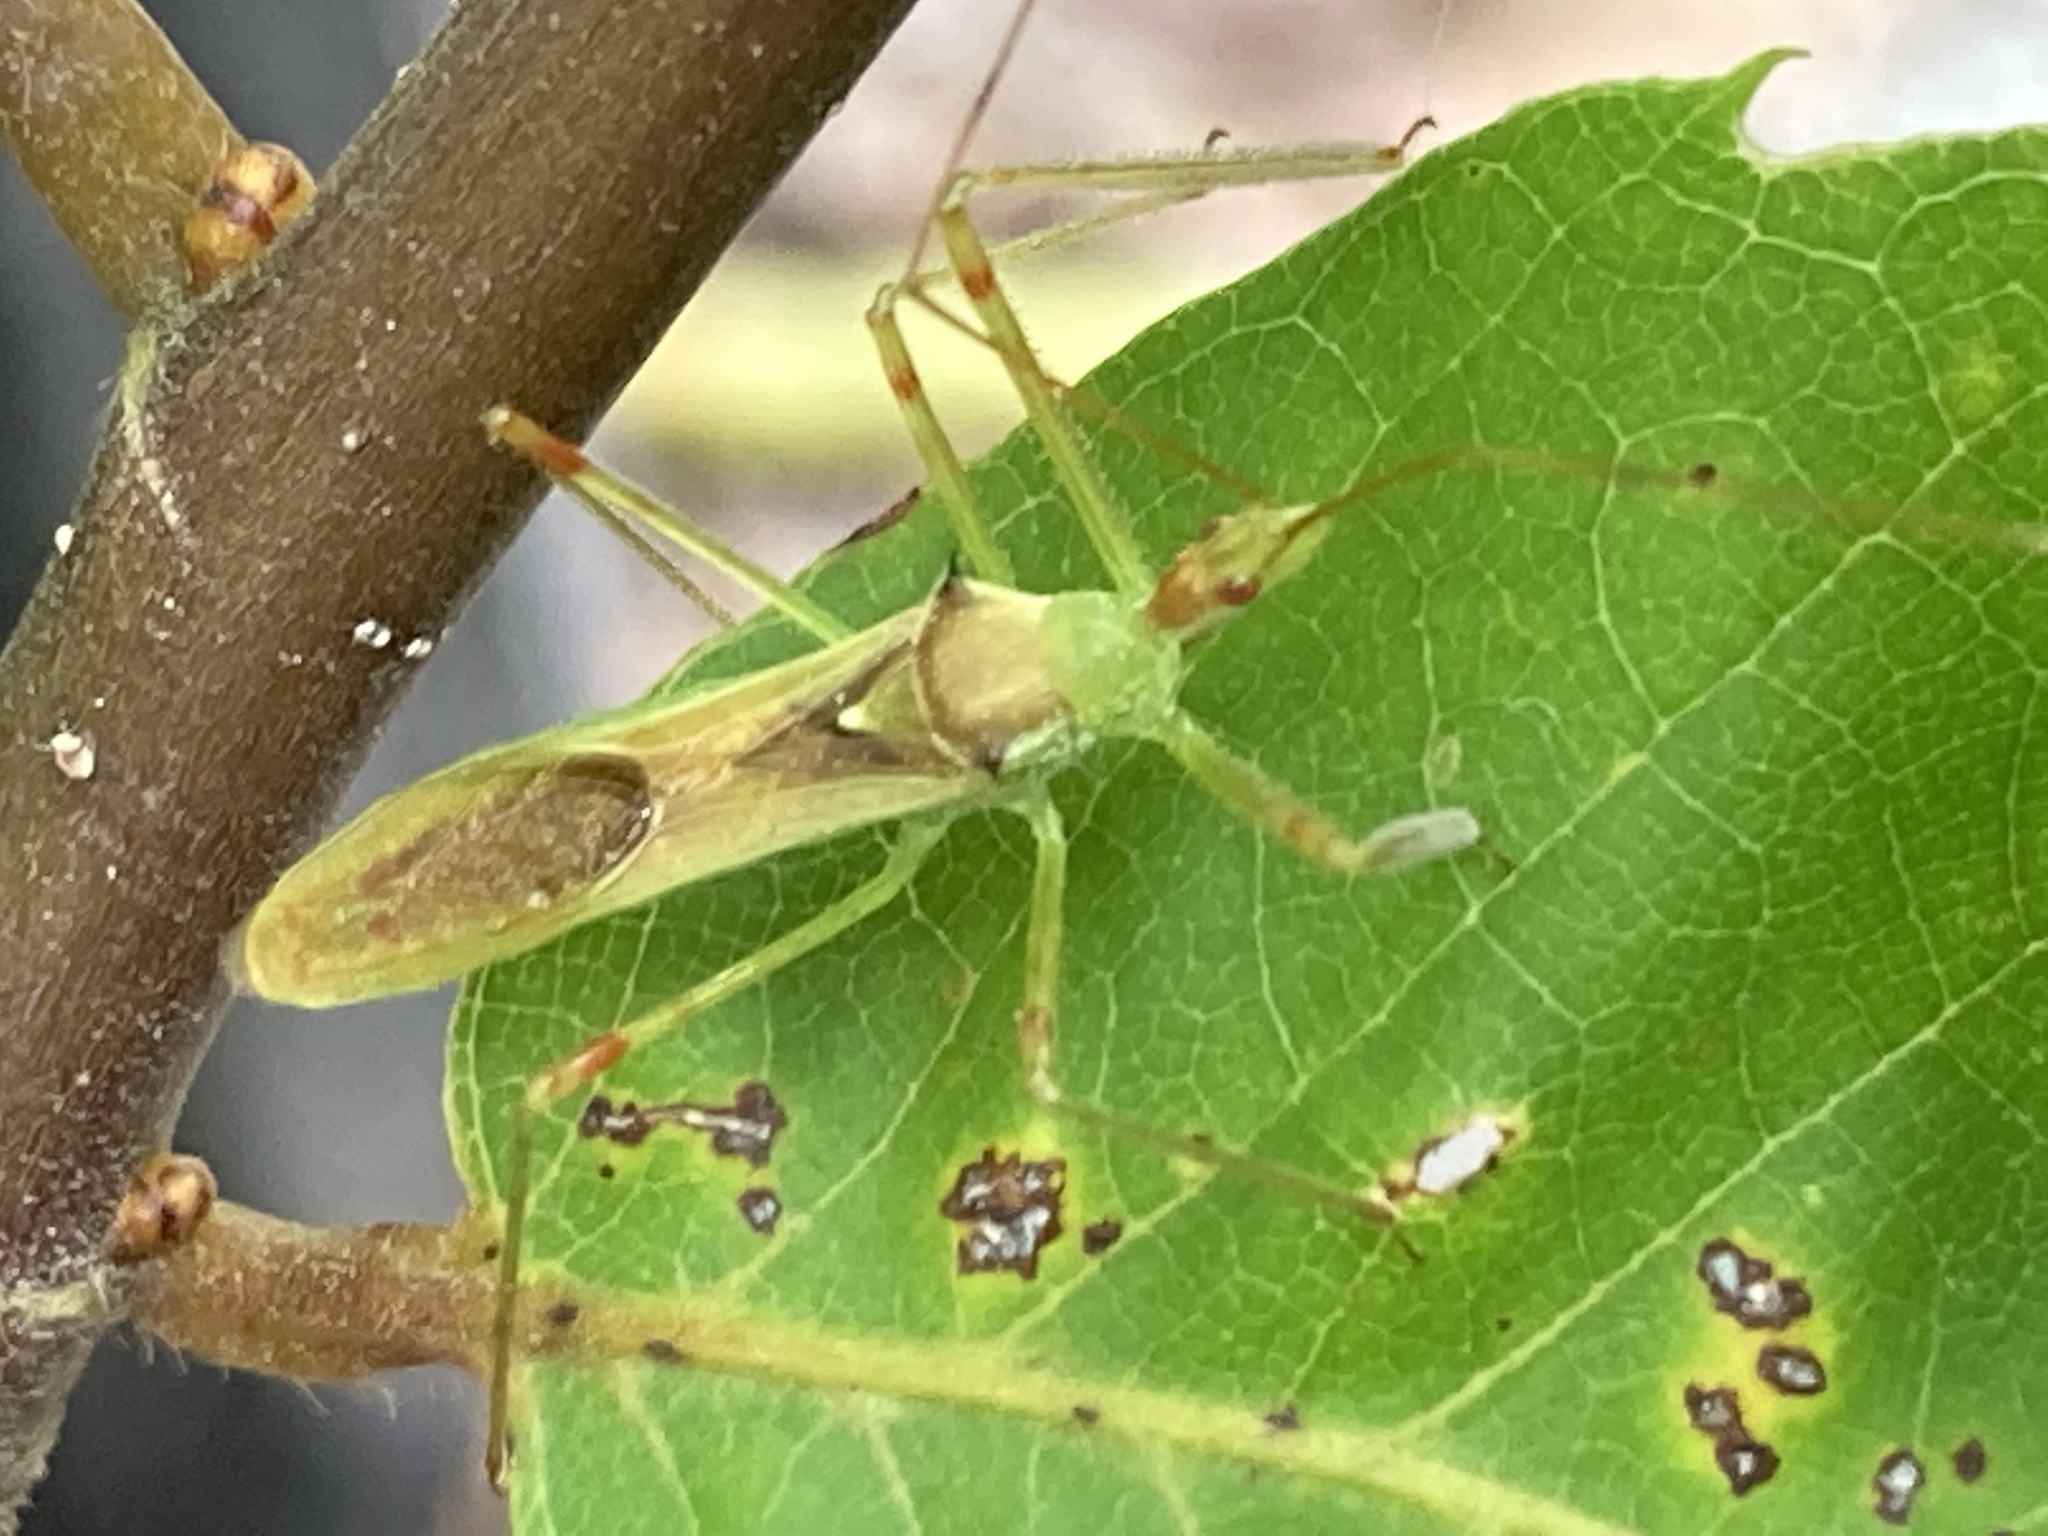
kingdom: Animalia
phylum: Arthropoda
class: Insecta
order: Hemiptera
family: Reduviidae
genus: Zelus
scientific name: Zelus luridus
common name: Pale green assassin bug
